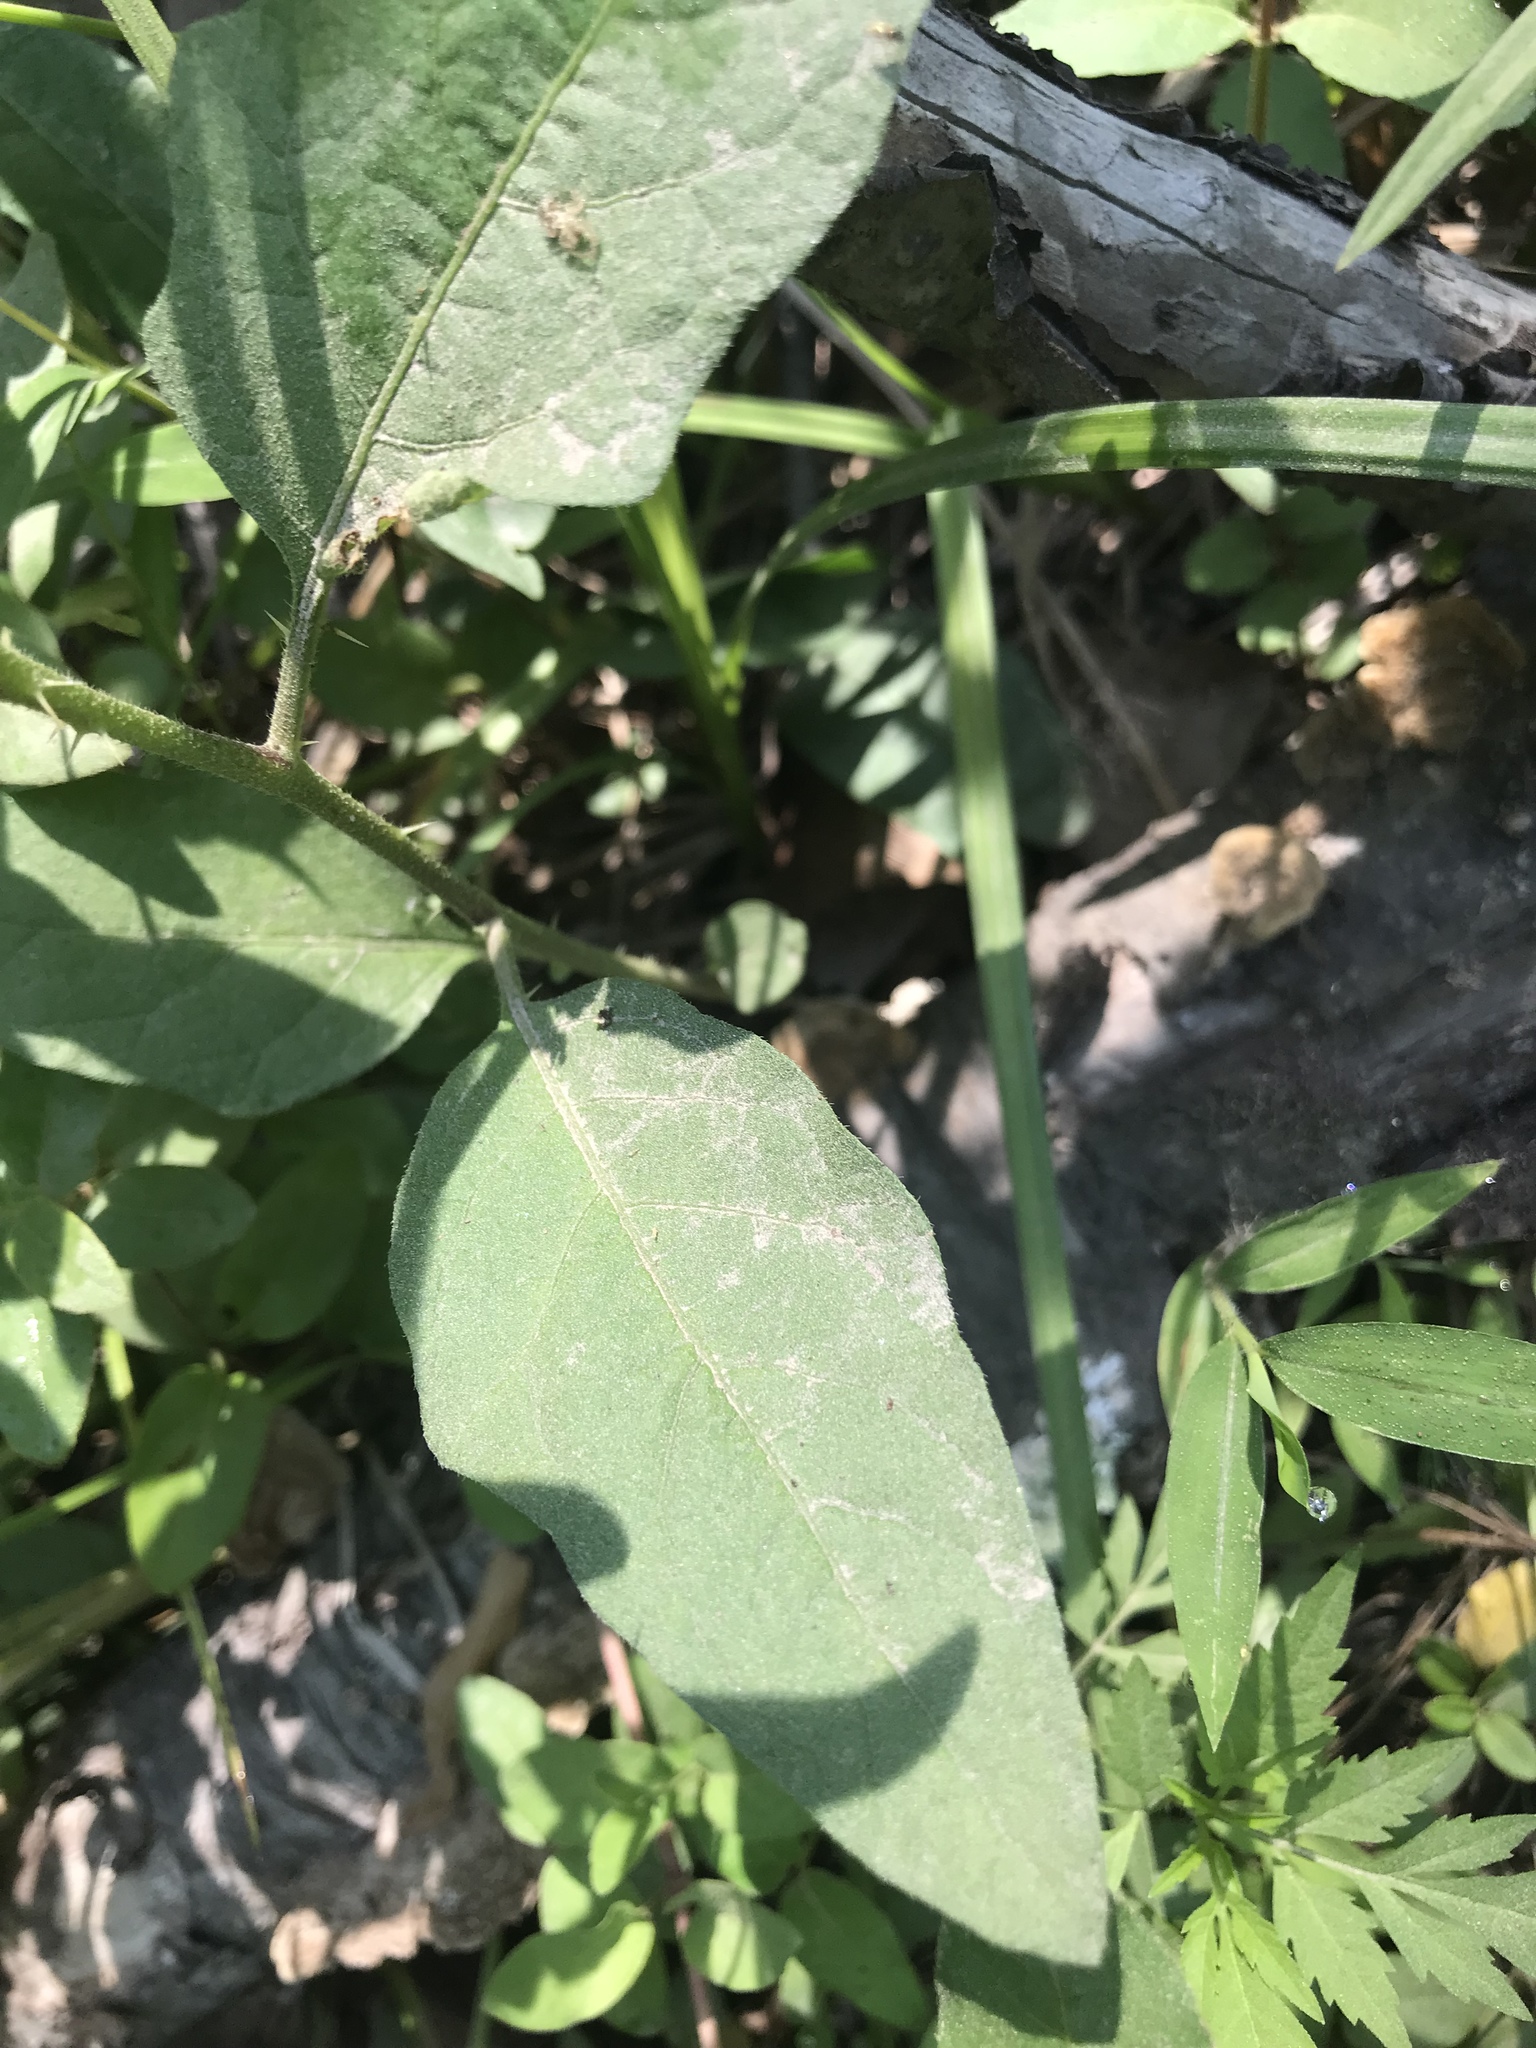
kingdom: Plantae
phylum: Tracheophyta
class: Magnoliopsida
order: Solanales
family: Solanaceae
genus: Solanum
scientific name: Solanum carolinense
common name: Horse-nettle
